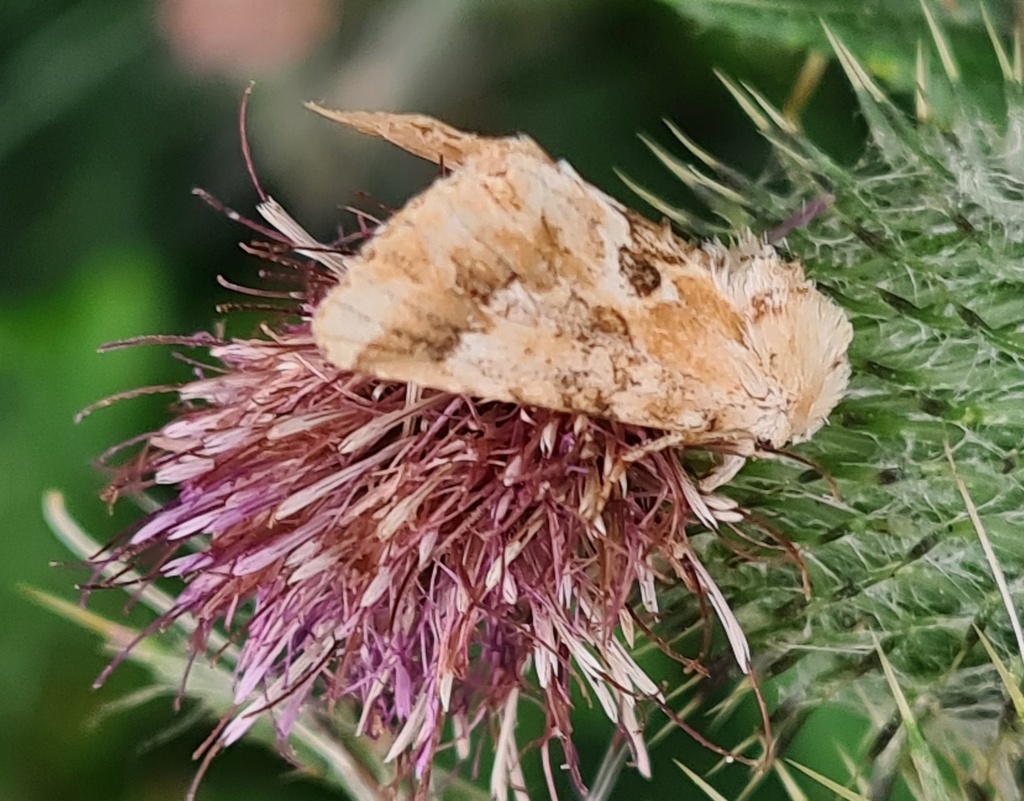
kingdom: Animalia
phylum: Arthropoda
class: Insecta
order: Lepidoptera
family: Noctuidae
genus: Eremobia
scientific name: Eremobia ochroleuca
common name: Dusky sallow
